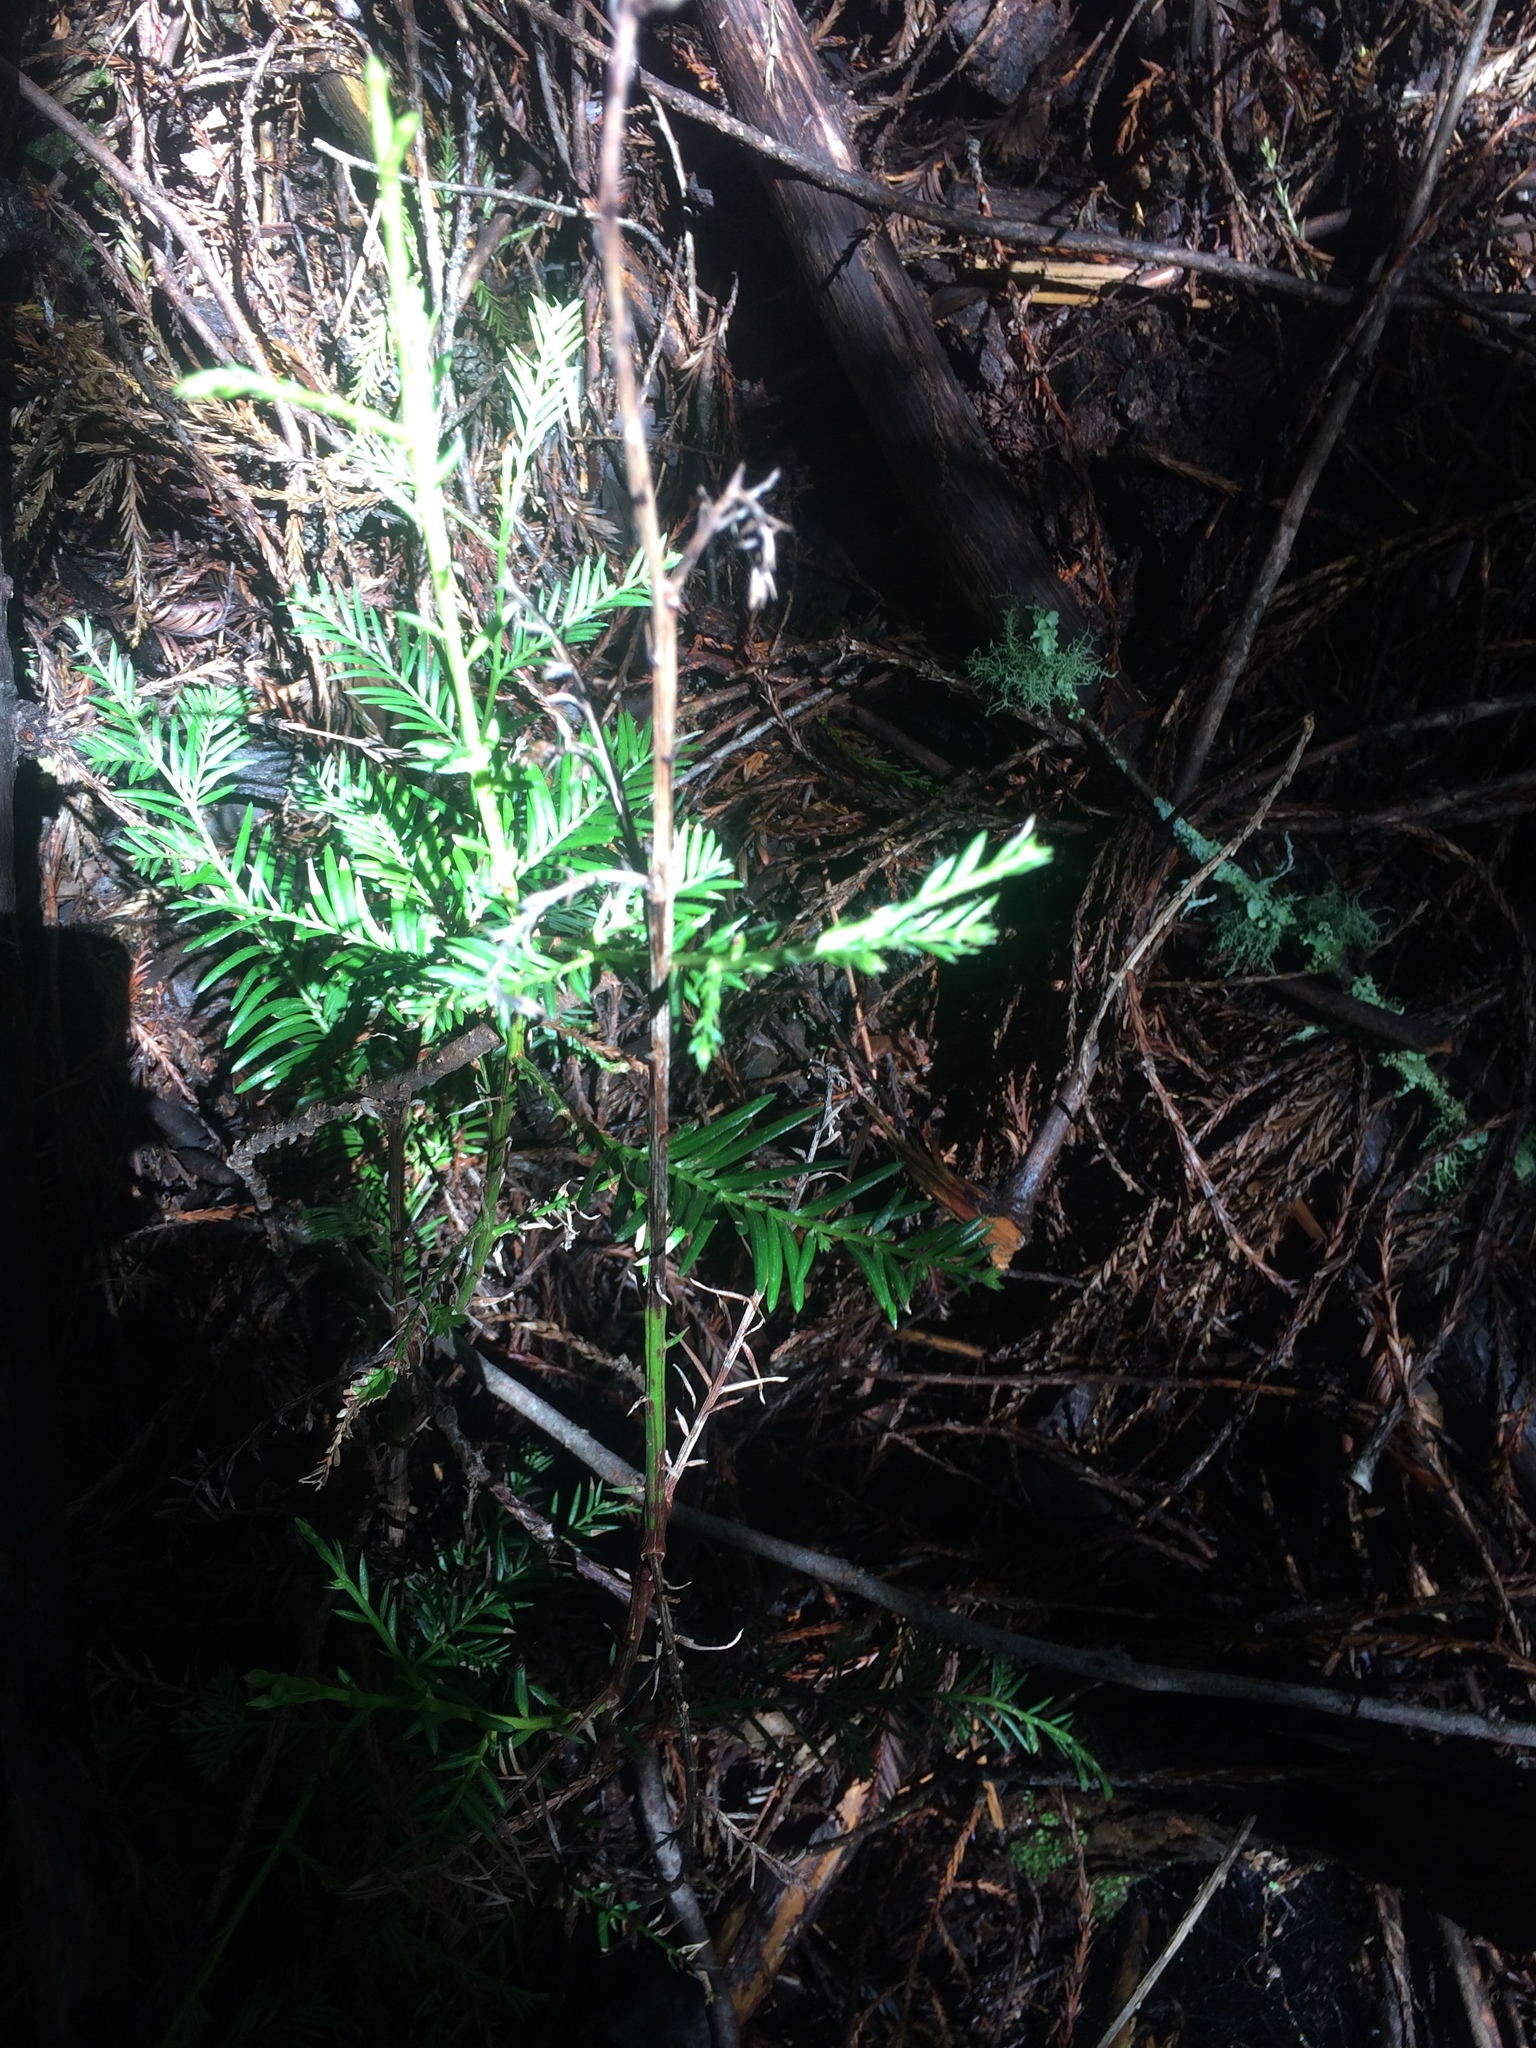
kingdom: Plantae
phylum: Tracheophyta
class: Pinopsida
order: Pinales
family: Cupressaceae
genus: Sequoia
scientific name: Sequoia sempervirens
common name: Coast redwood
